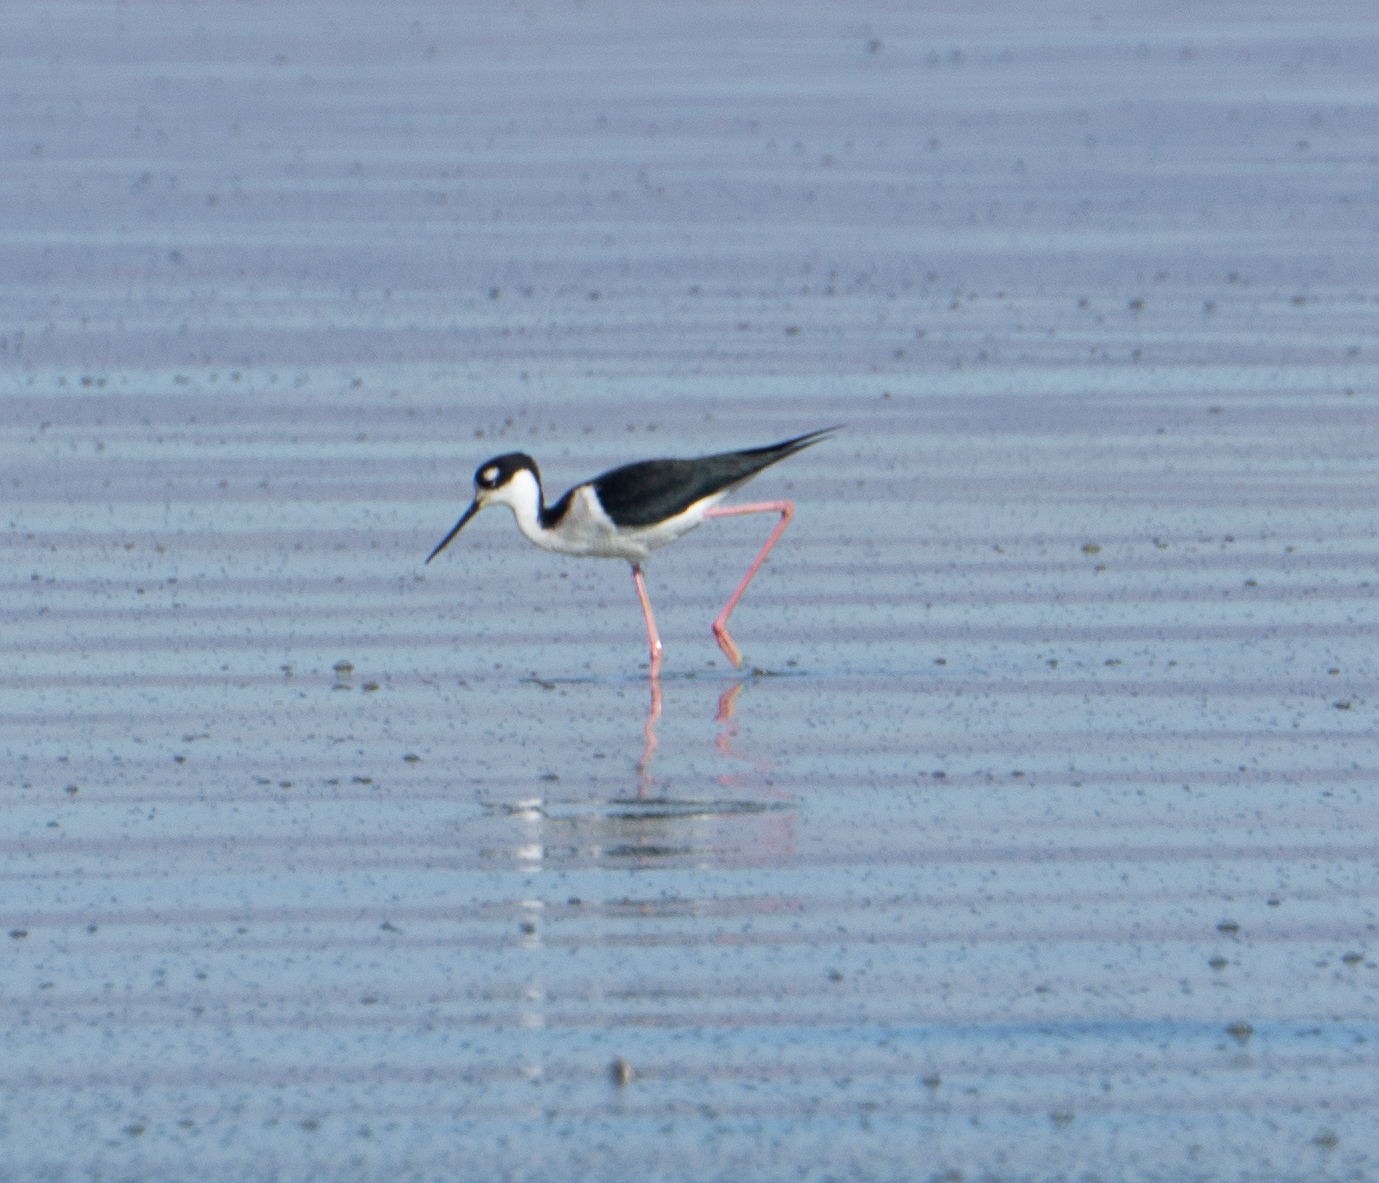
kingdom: Animalia
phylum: Chordata
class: Aves
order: Charadriiformes
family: Recurvirostridae
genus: Himantopus
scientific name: Himantopus mexicanus
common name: Black-necked stilt
